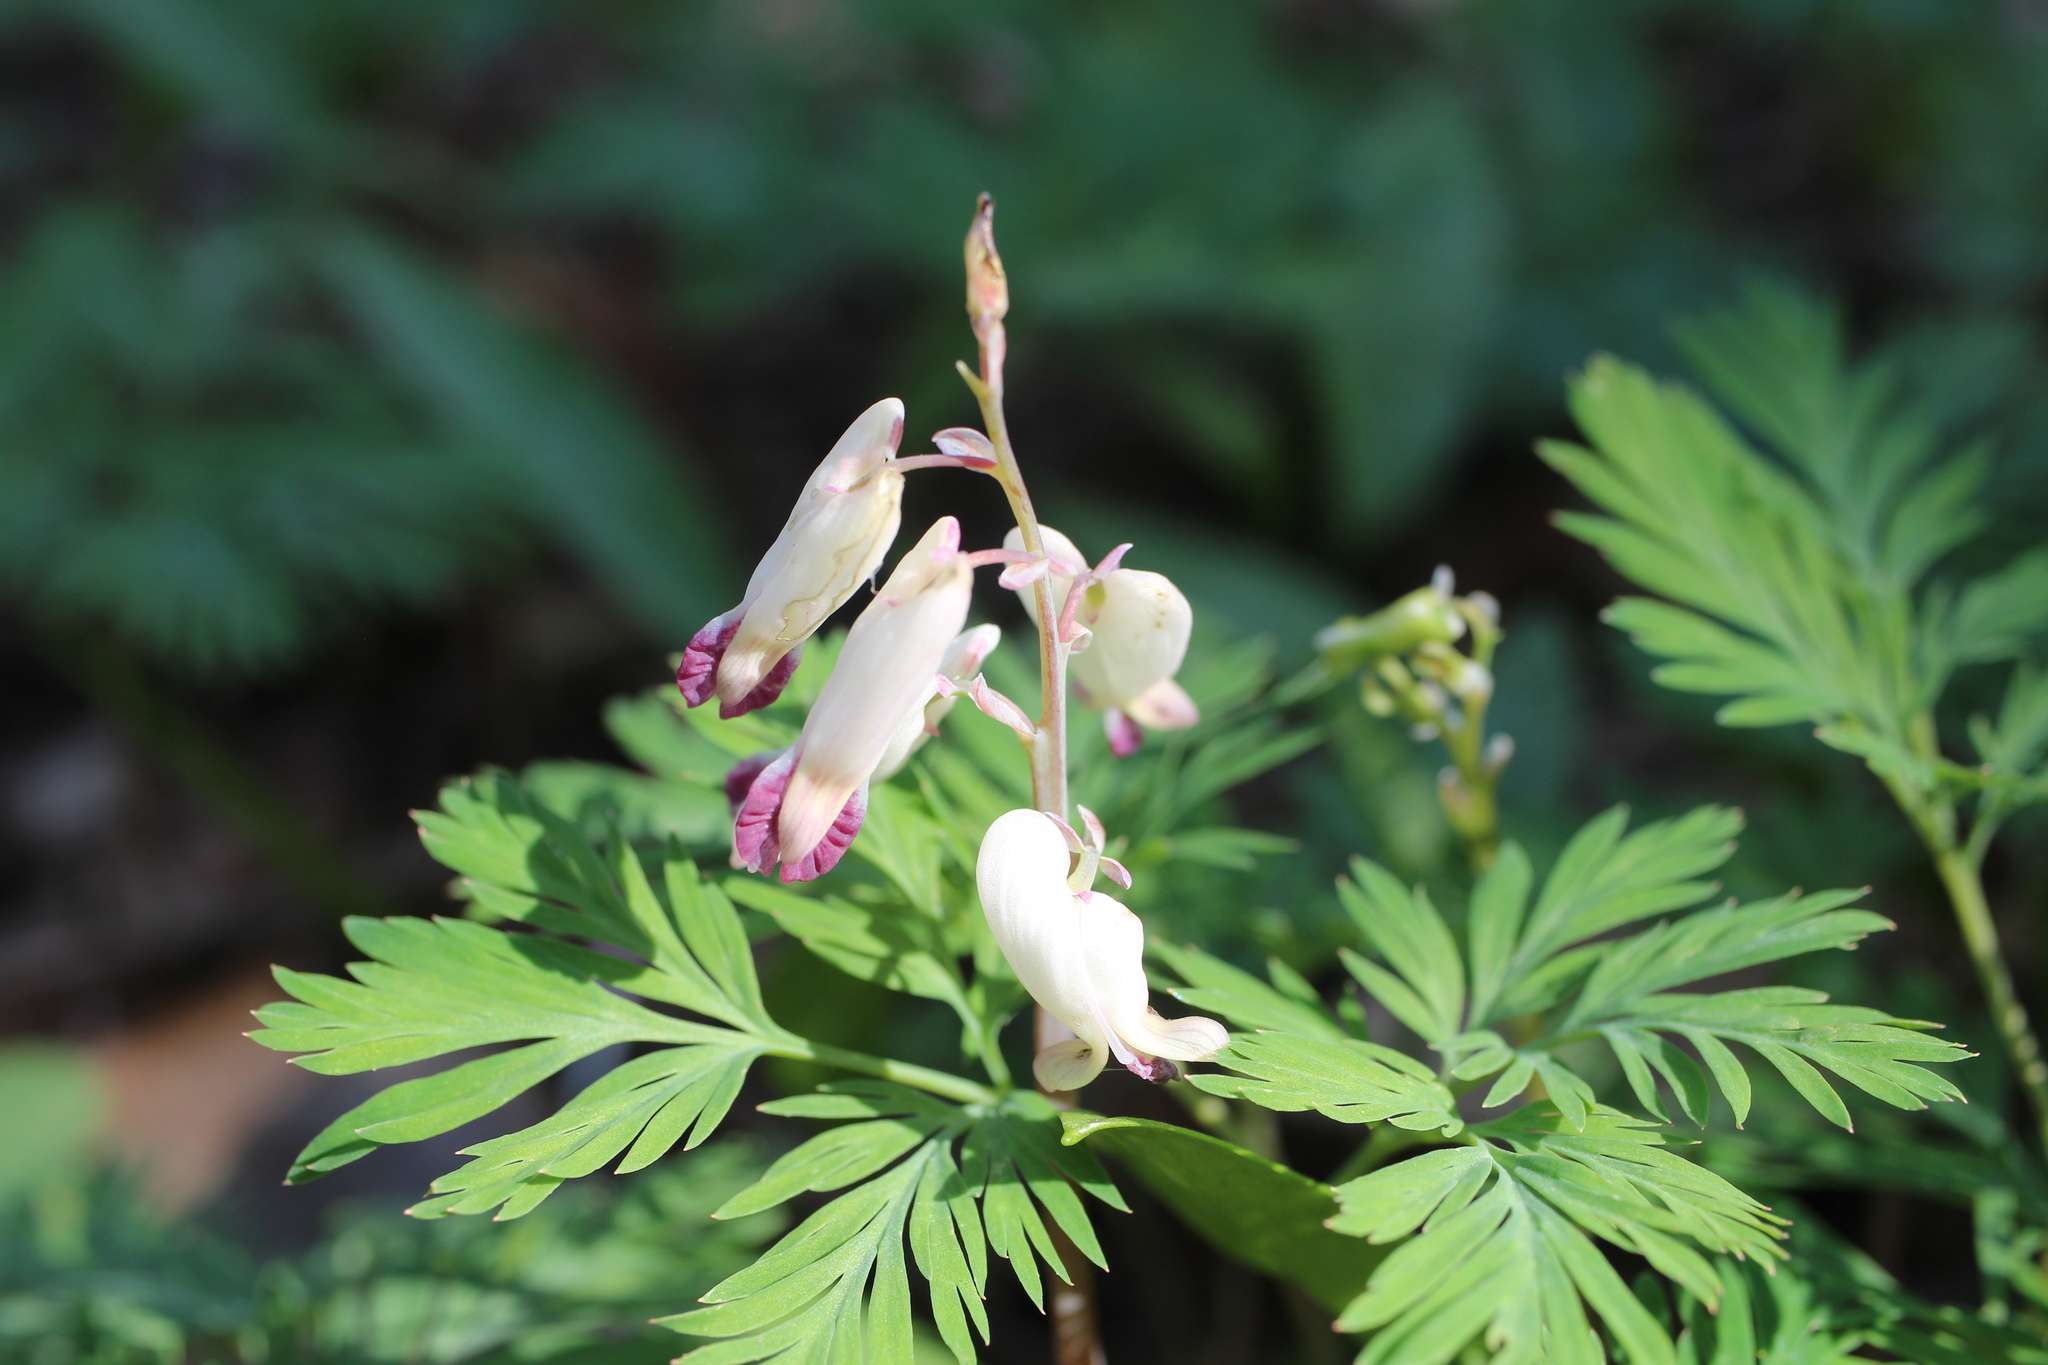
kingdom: Plantae
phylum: Tracheophyta
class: Magnoliopsida
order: Ranunculales
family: Papaveraceae
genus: Dicentra
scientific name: Dicentra canadensis
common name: Squirrel-corn
